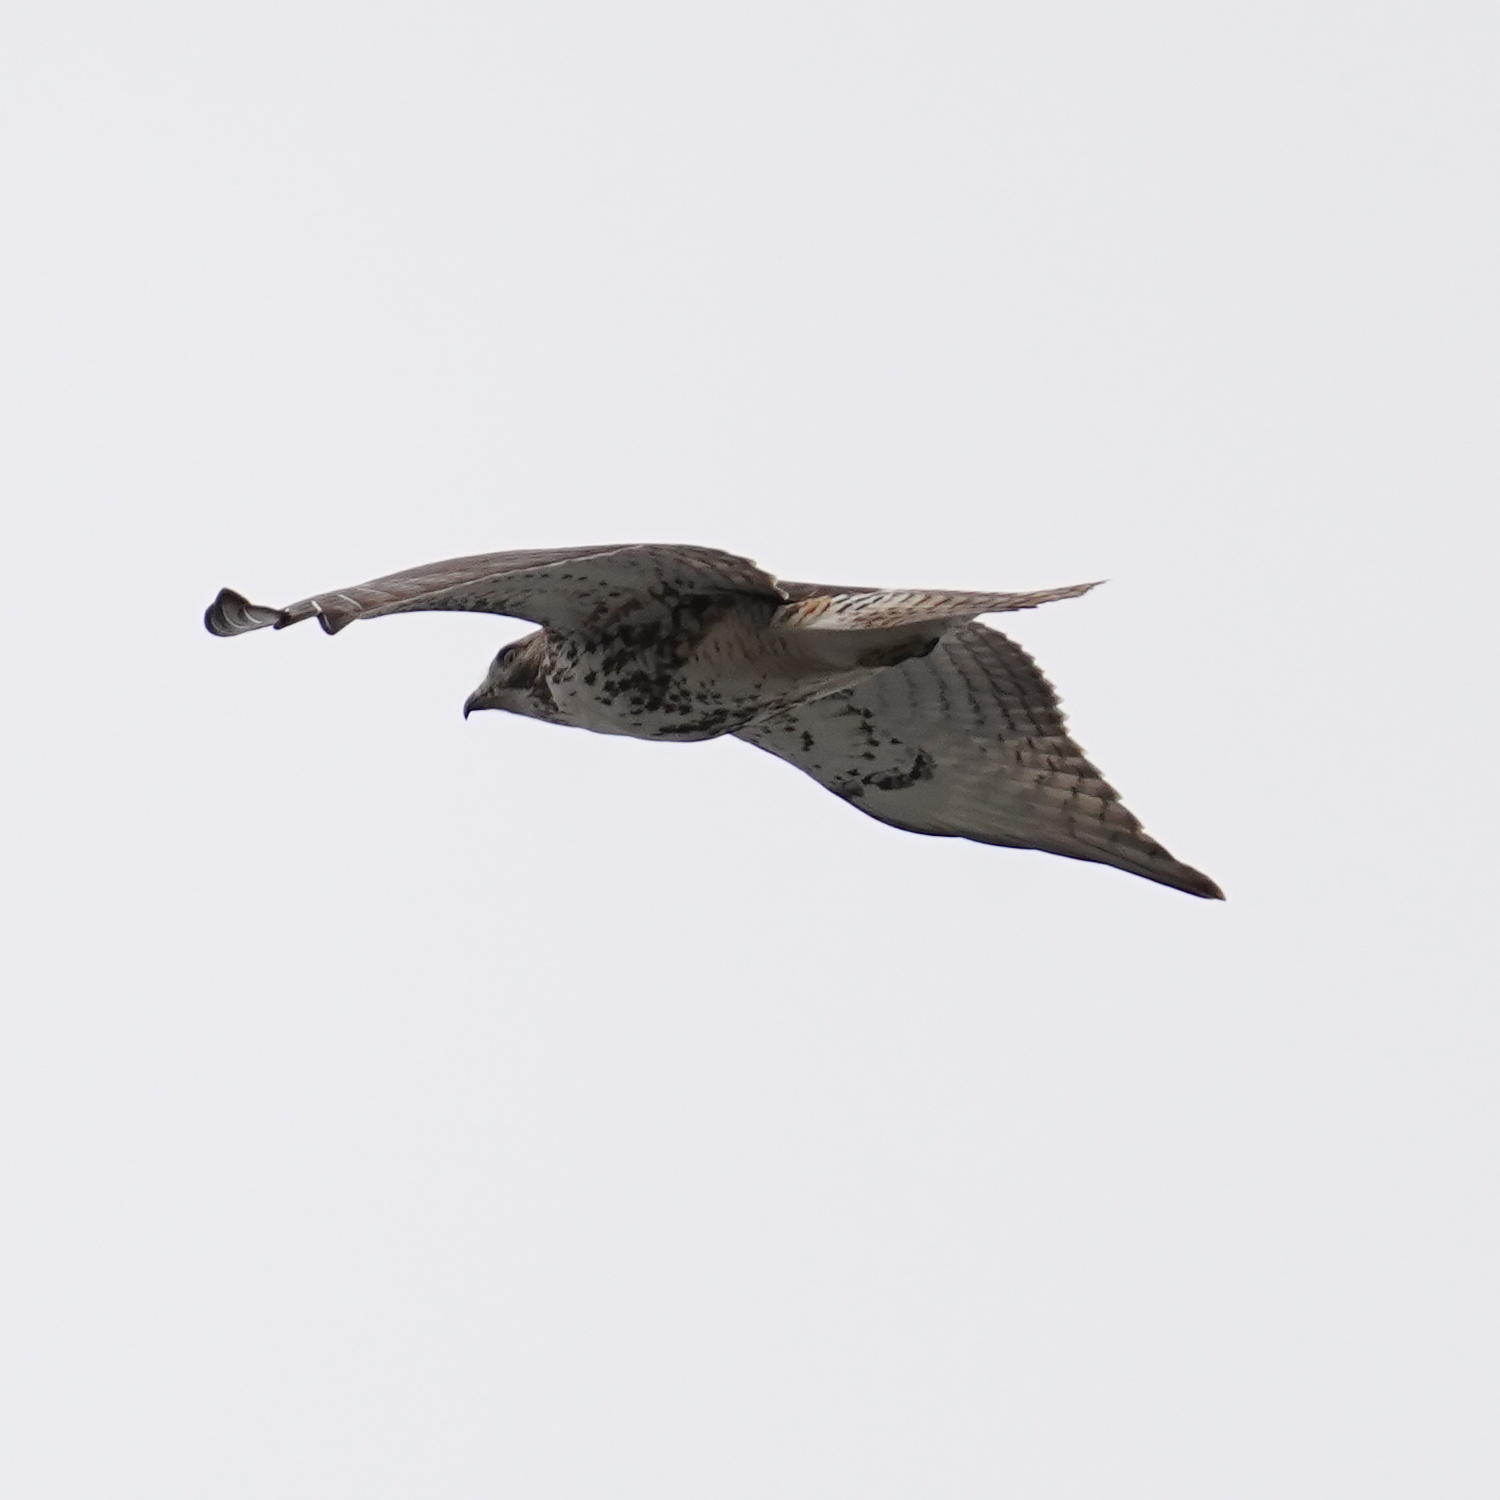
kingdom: Animalia
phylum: Chordata
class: Aves
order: Accipitriformes
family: Accipitridae
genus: Buteo
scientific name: Buteo jamaicensis
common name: Red-tailed hawk
